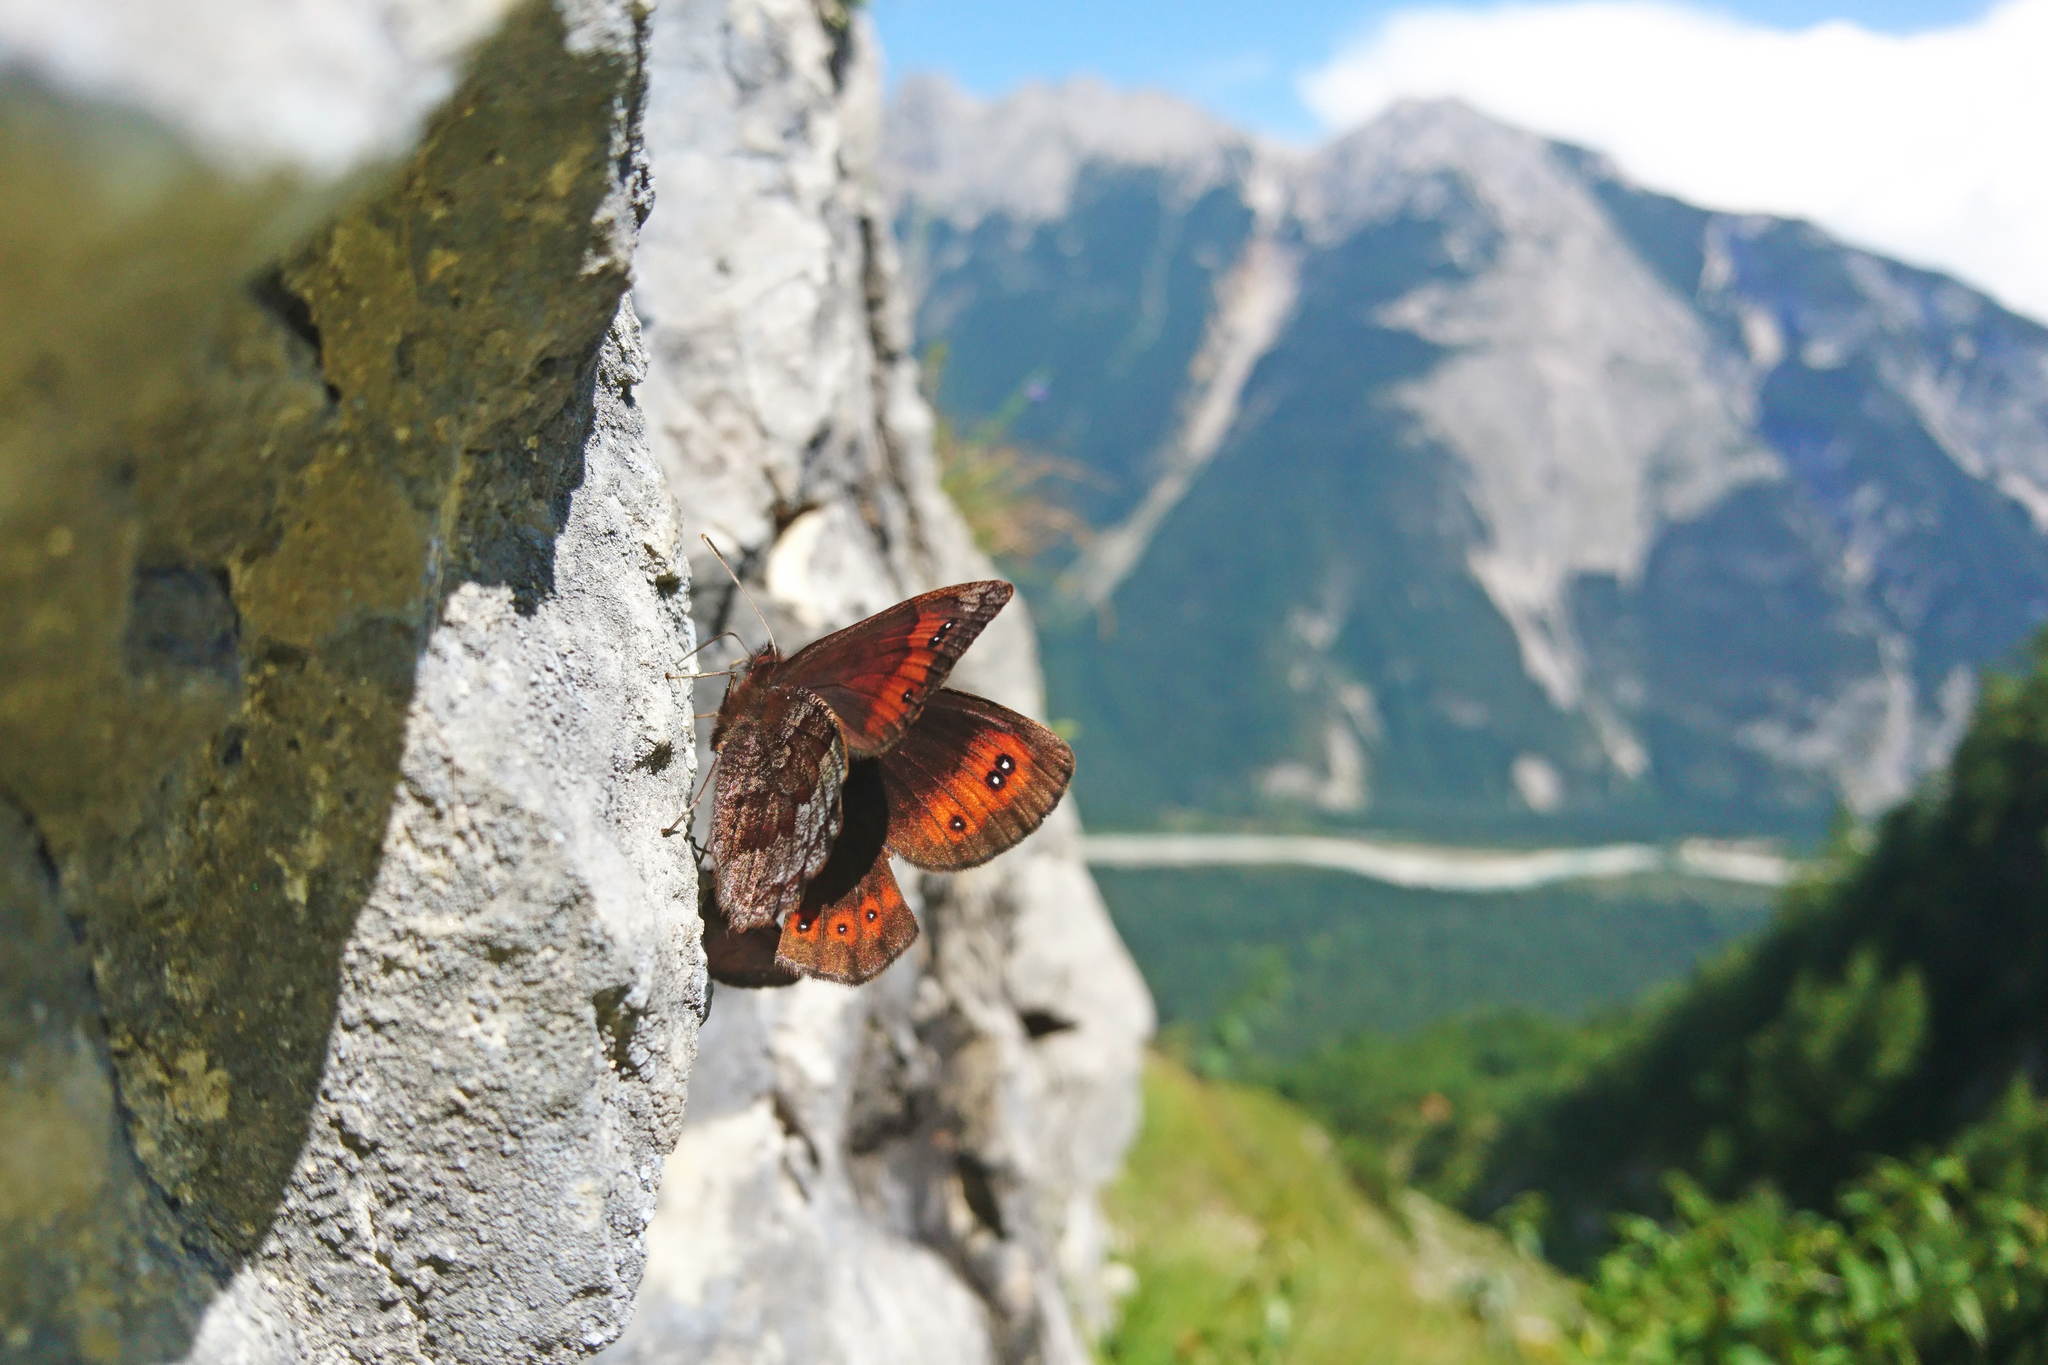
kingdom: Animalia
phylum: Arthropoda
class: Insecta
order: Lepidoptera
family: Nymphalidae
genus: Erebia
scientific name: Erebia pronoe
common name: Water ringlet
